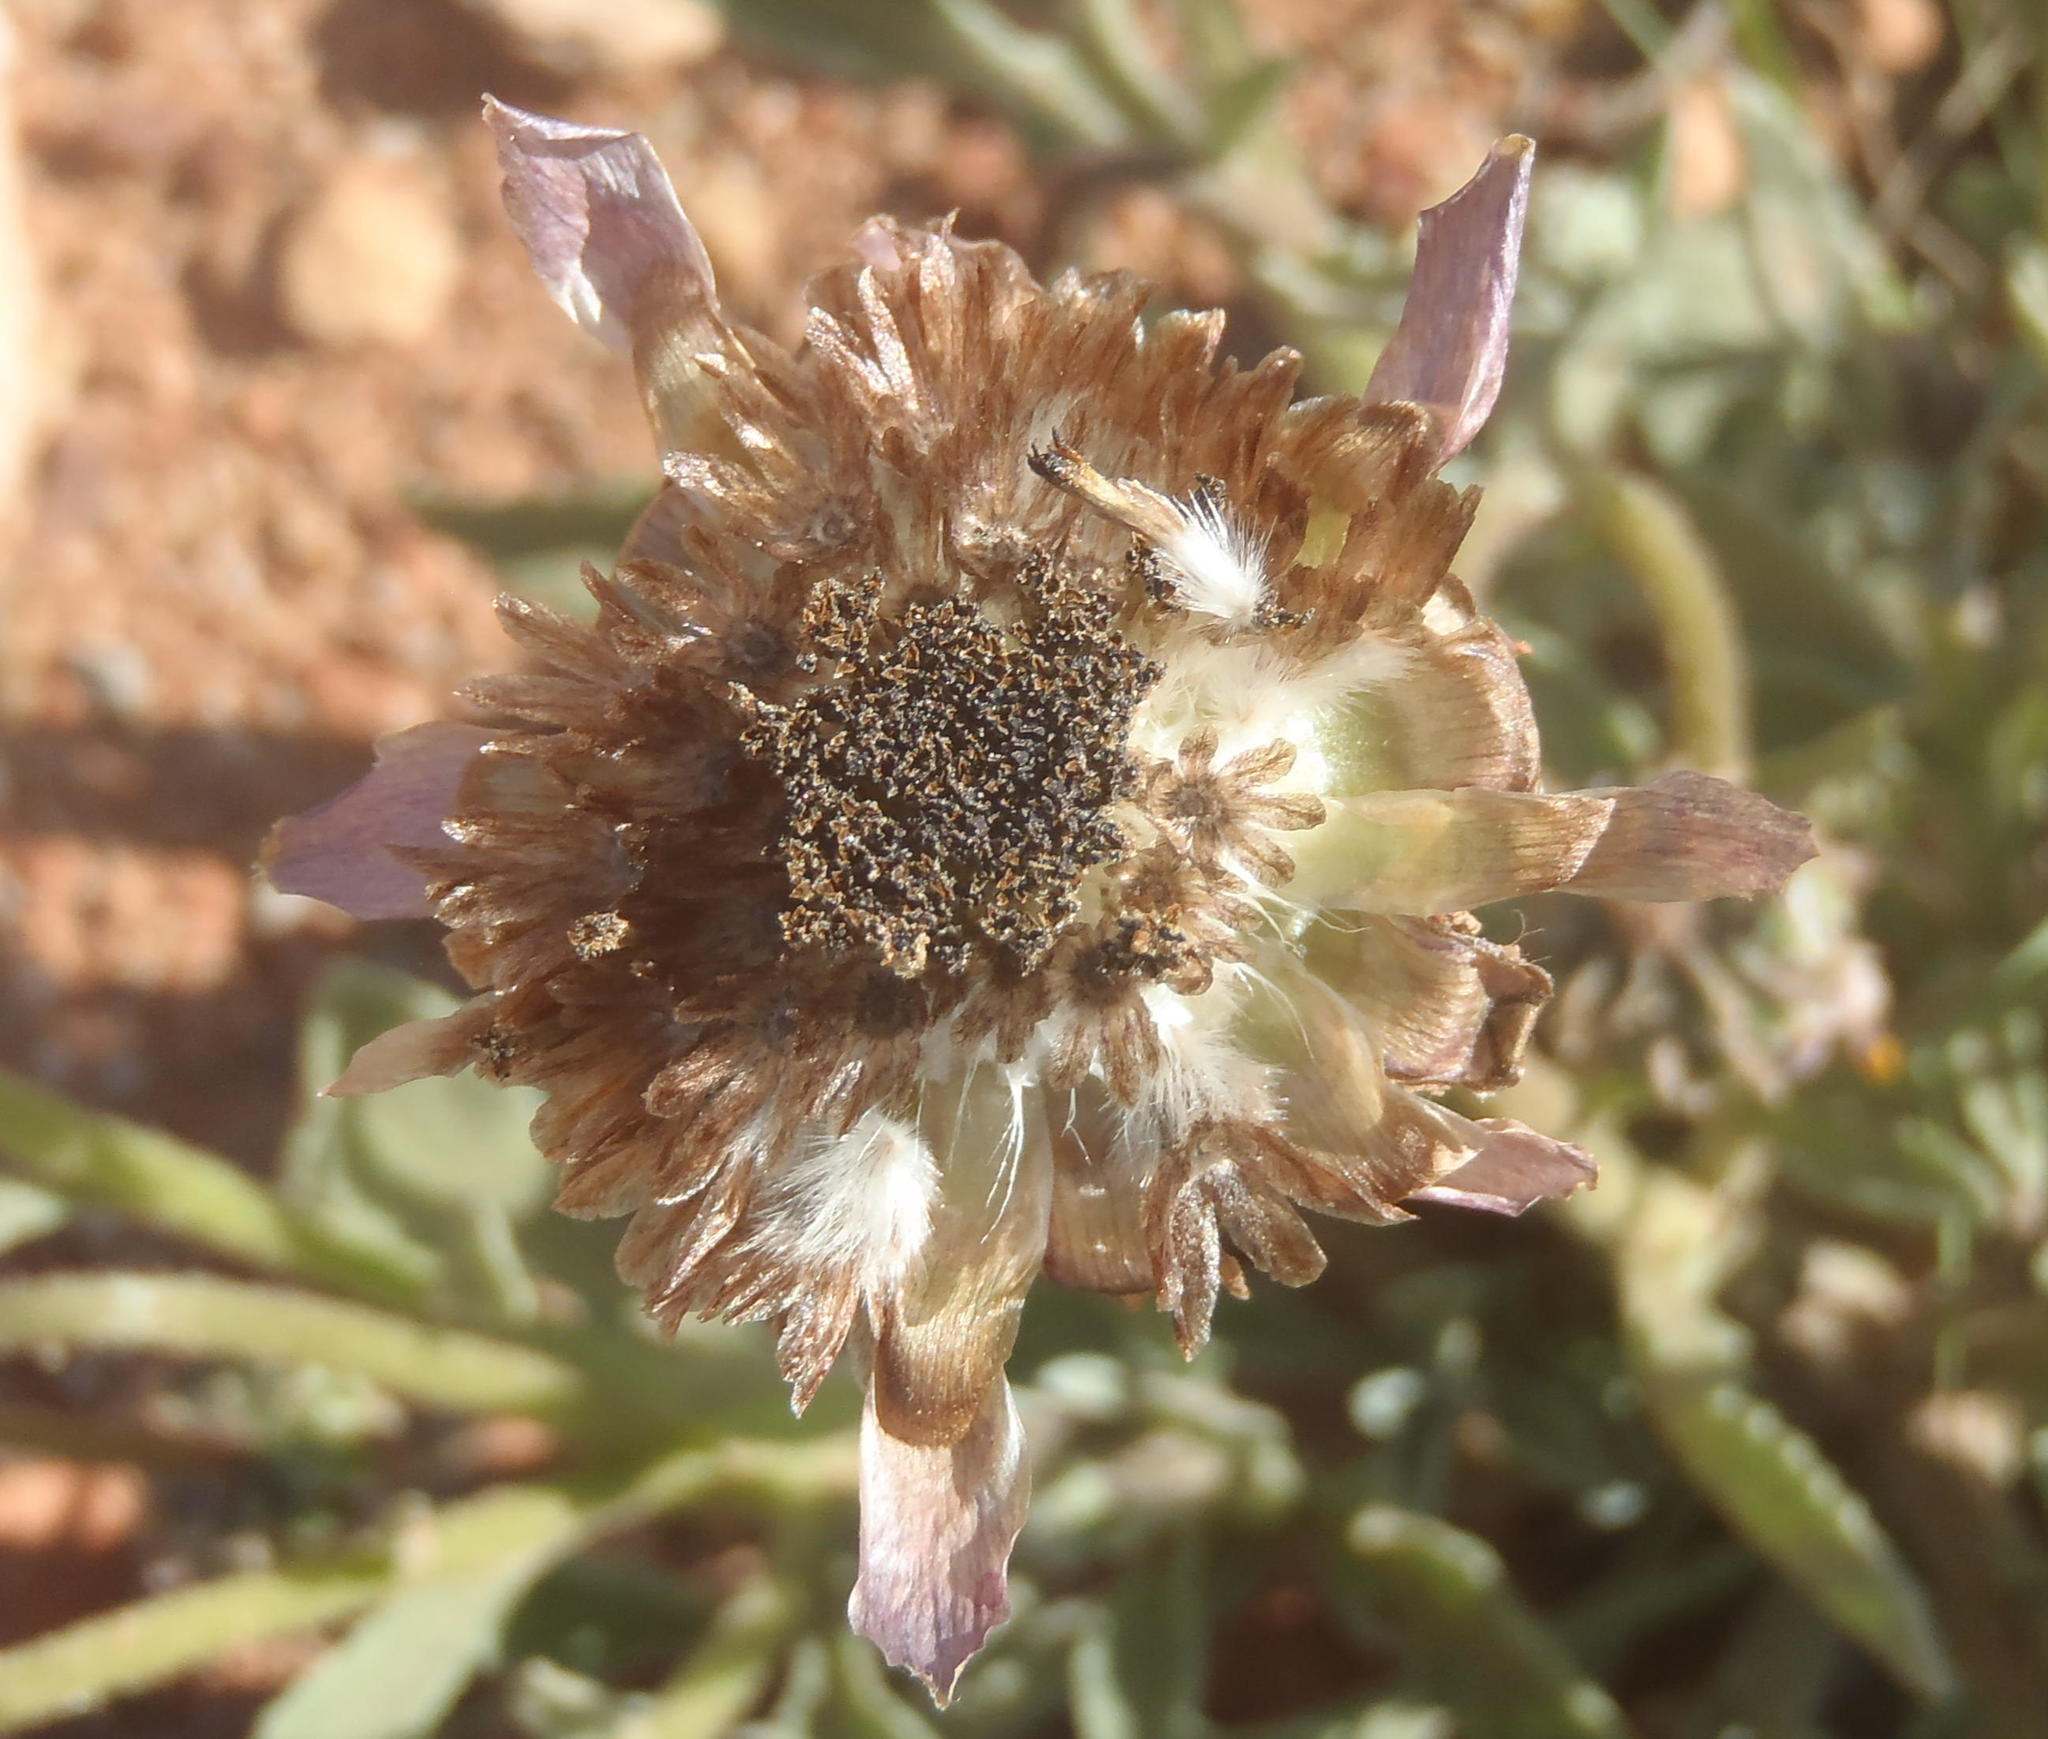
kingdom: Plantae
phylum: Tracheophyta
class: Magnoliopsida
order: Asterales
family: Asteraceae
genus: Arctotis
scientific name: Arctotis lanceolata
